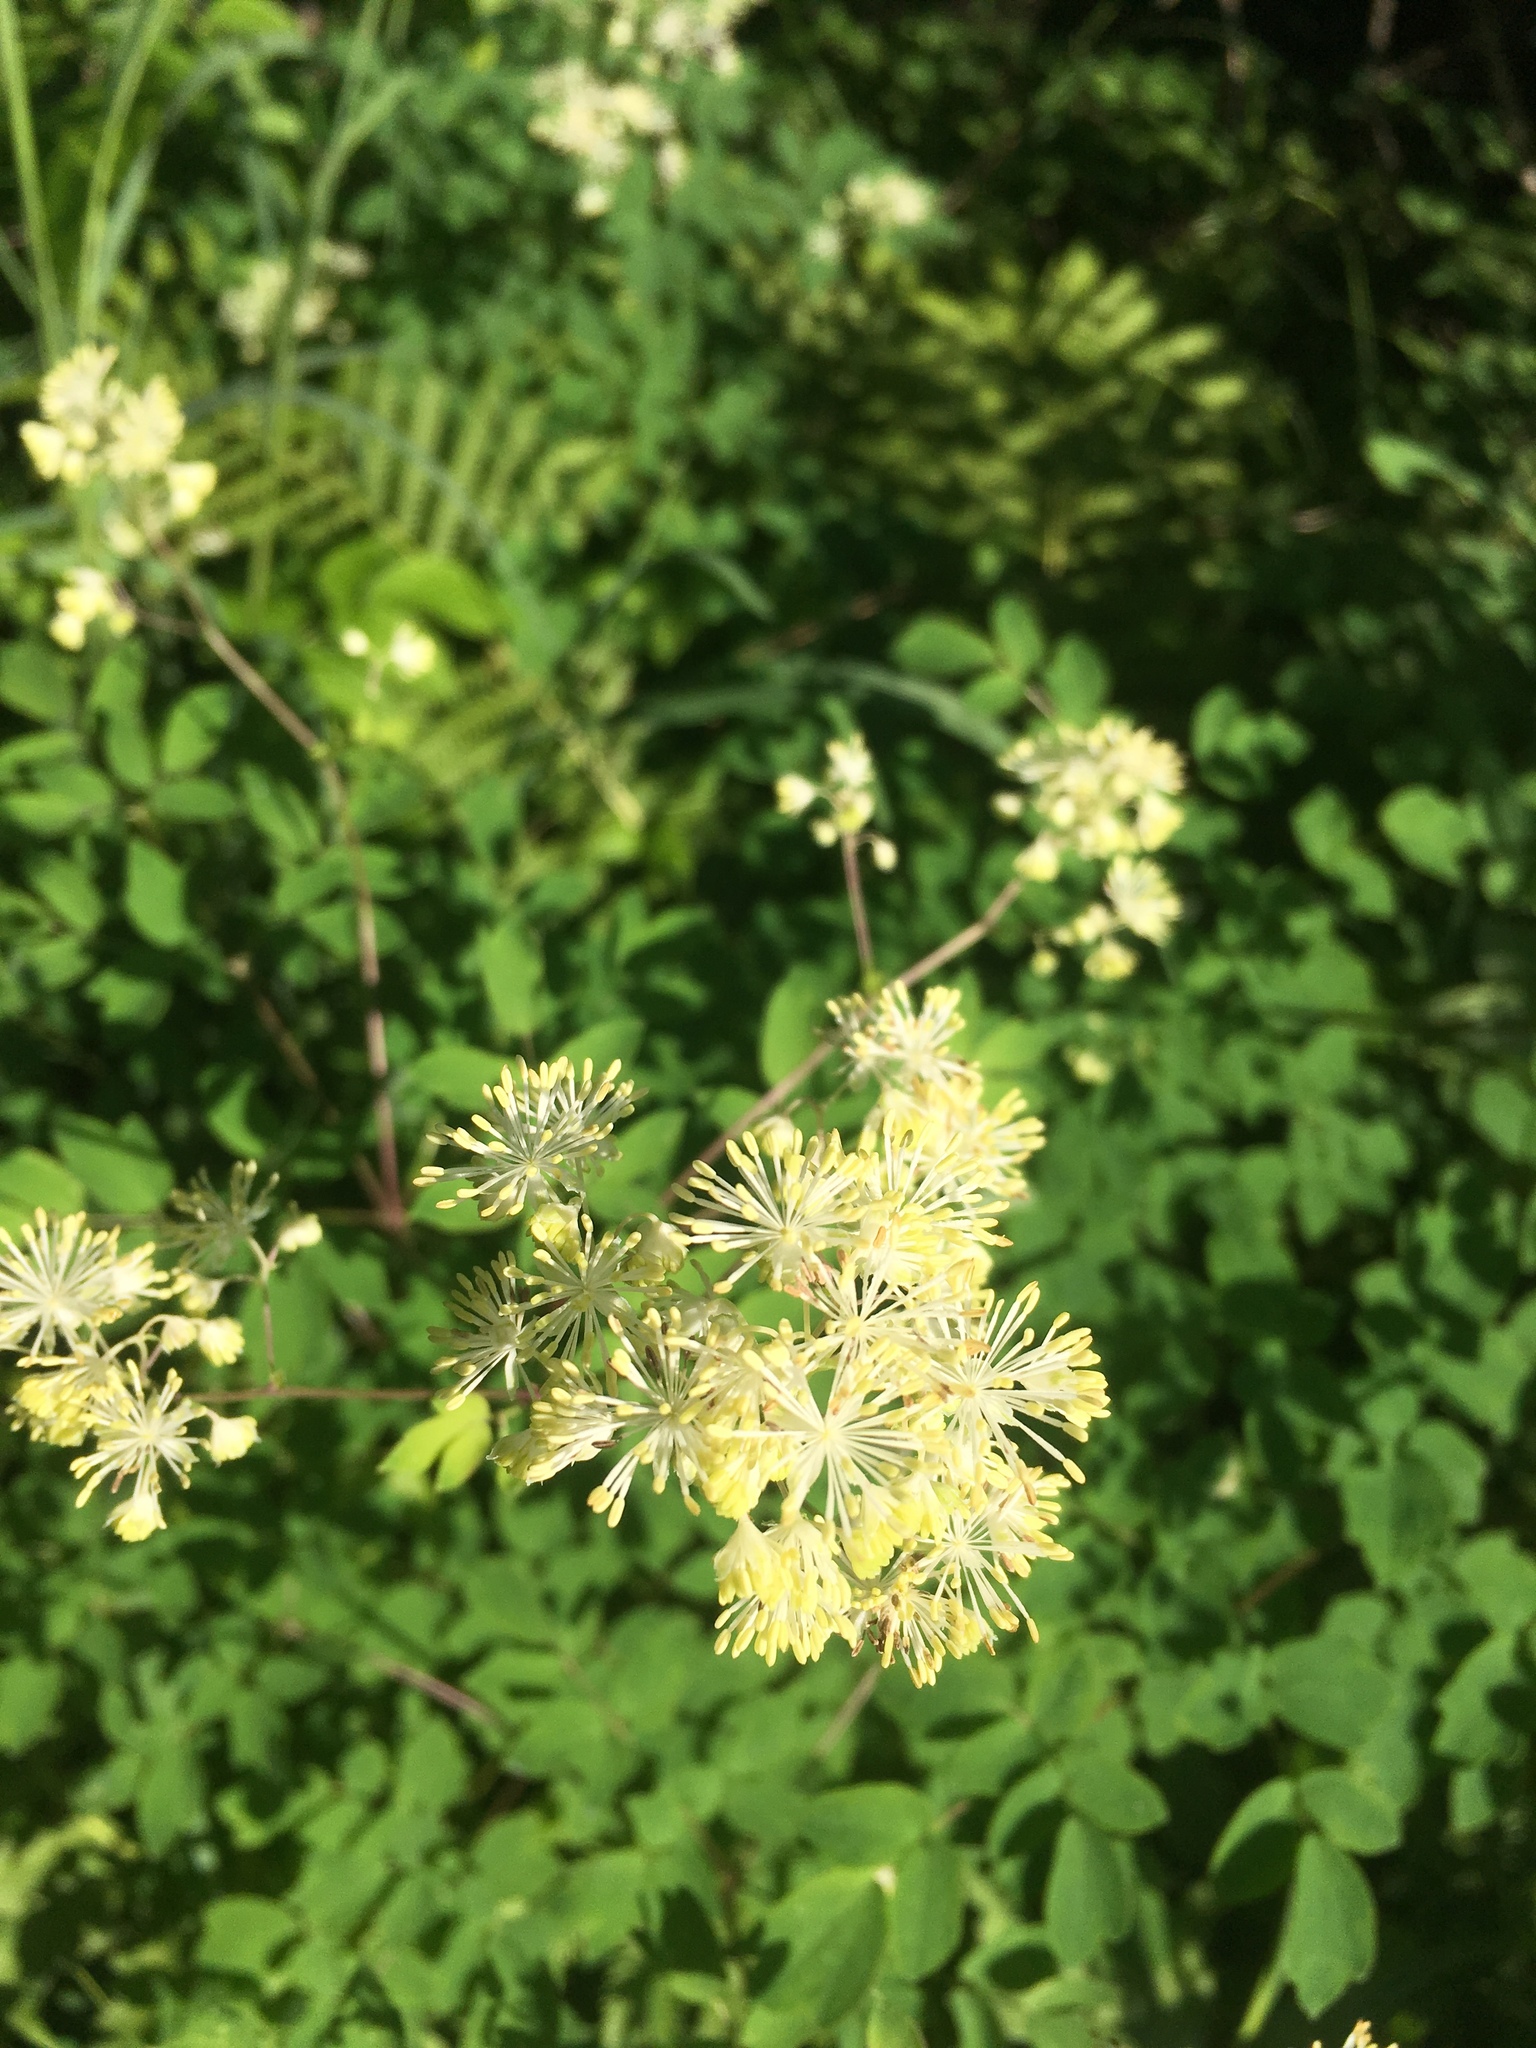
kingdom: Plantae
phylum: Tracheophyta
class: Magnoliopsida
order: Ranunculales
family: Ranunculaceae
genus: Thalictrum
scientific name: Thalictrum pubescens
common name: King-of-the-meadow
